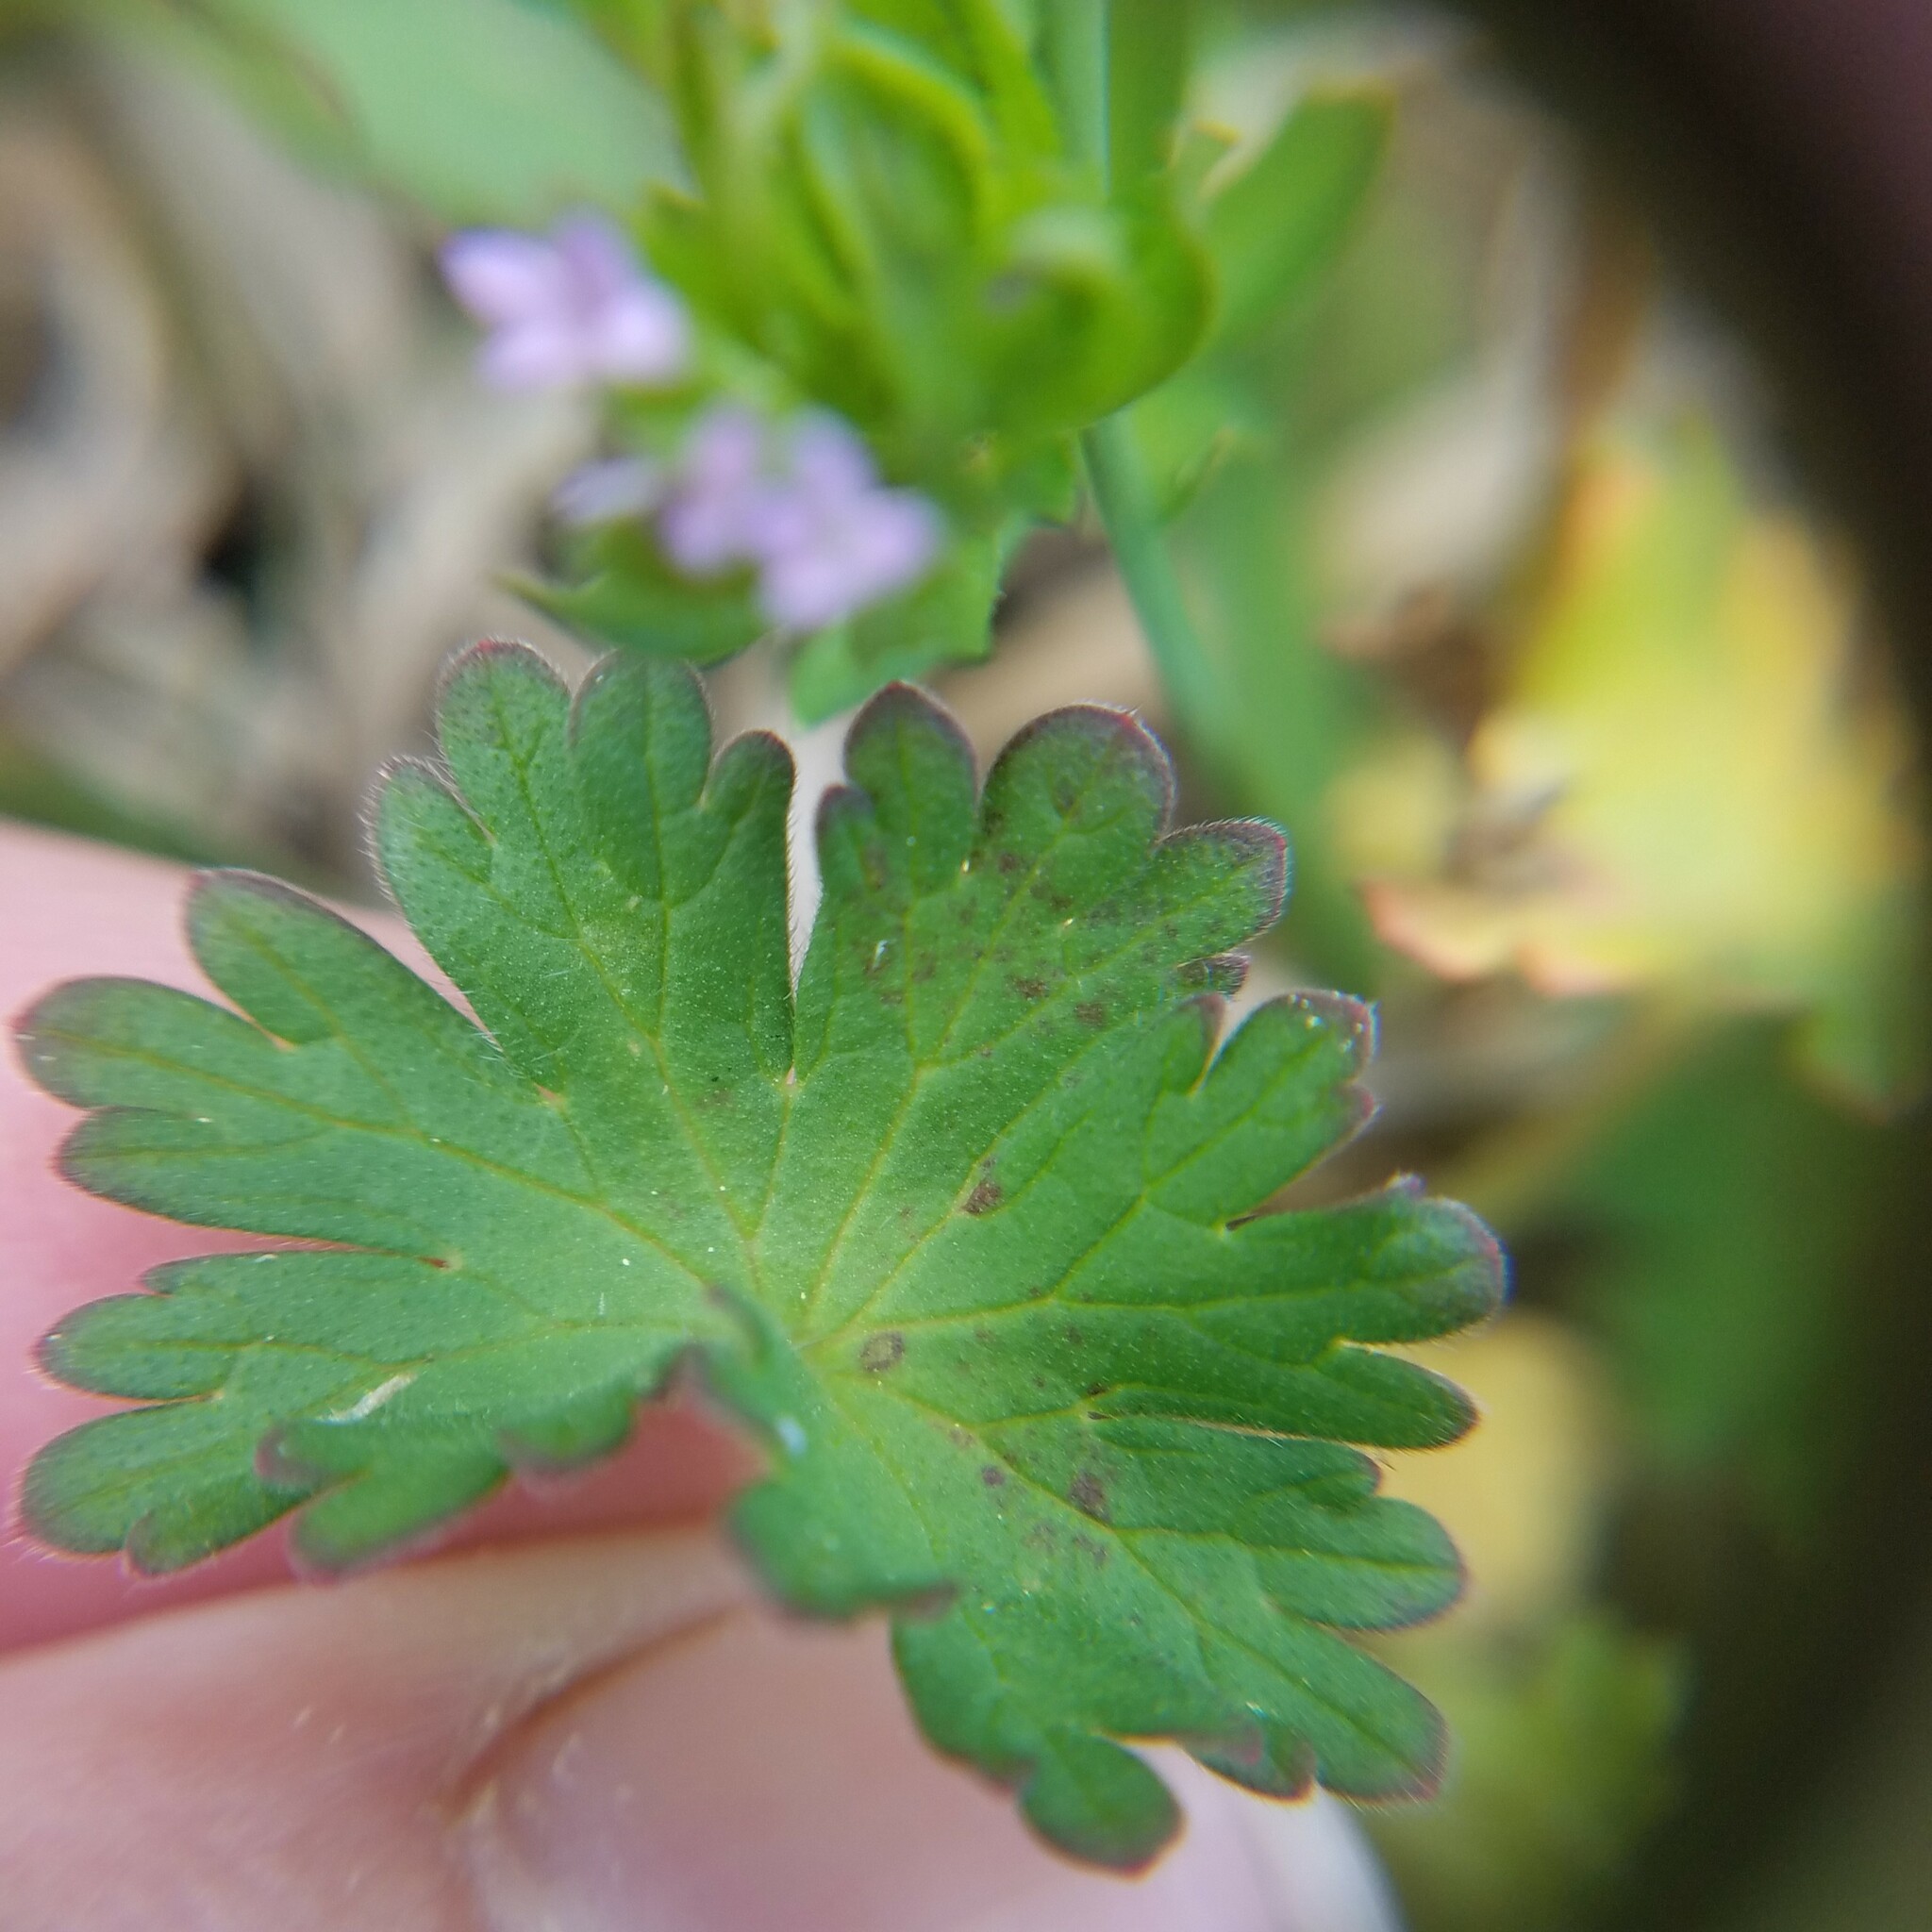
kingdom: Plantae
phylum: Tracheophyta
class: Magnoliopsida
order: Geraniales
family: Geraniaceae
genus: Geranium
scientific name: Geranium molle
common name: Dove's-foot crane's-bill
